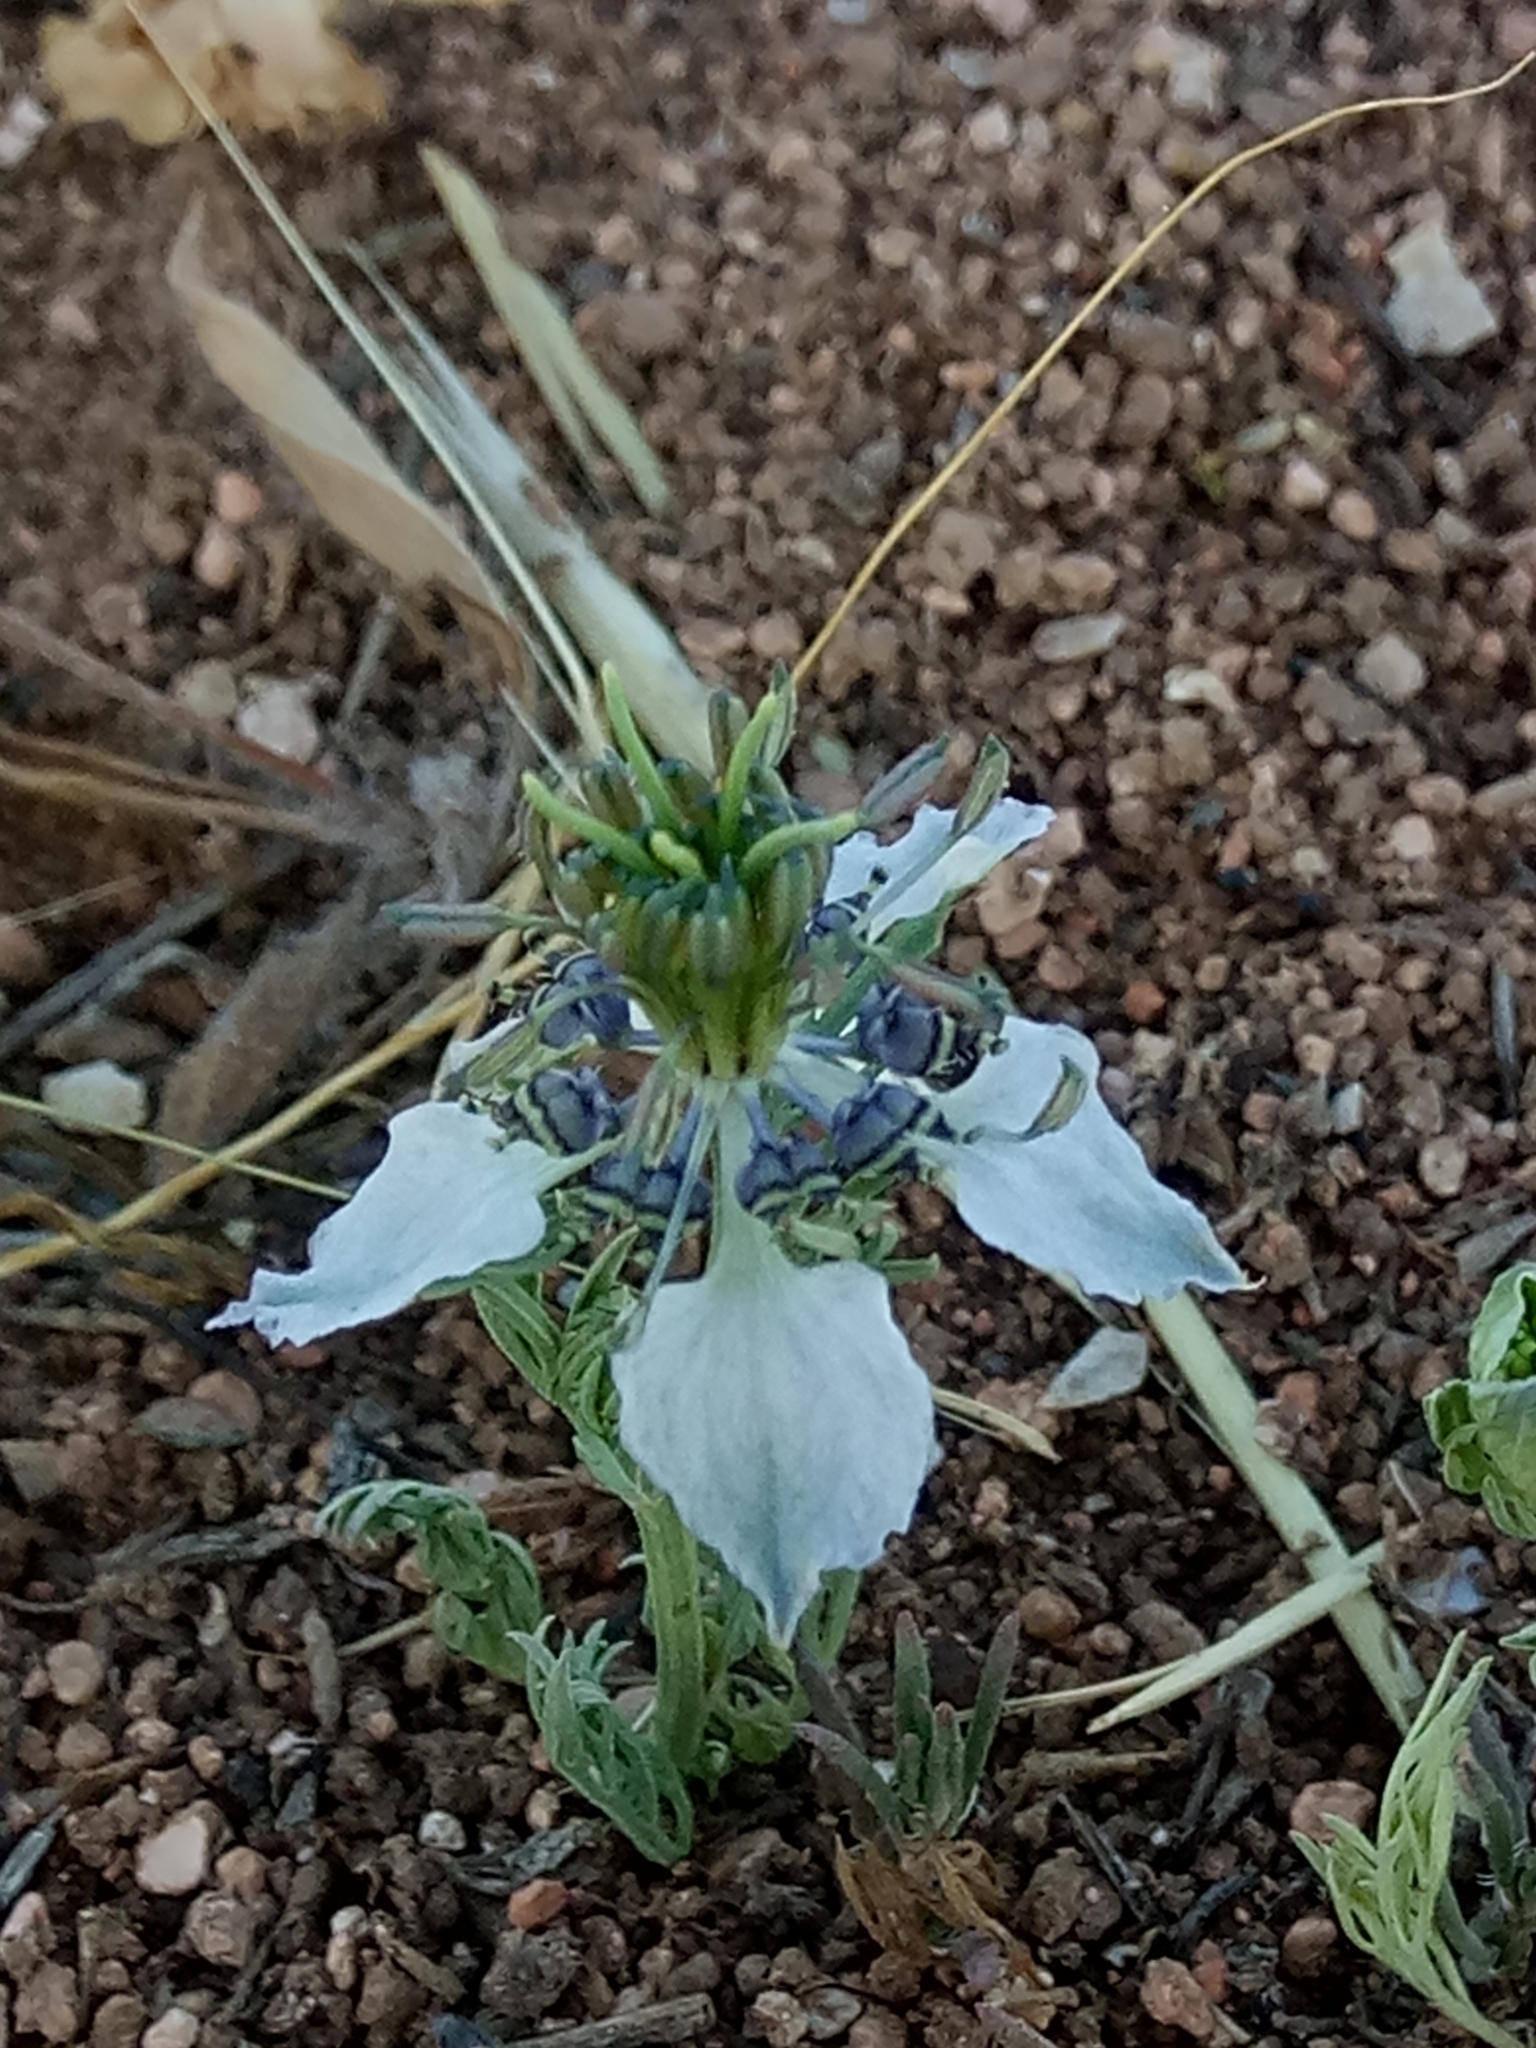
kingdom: Plantae
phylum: Tracheophyta
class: Magnoliopsida
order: Ranunculales
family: Ranunculaceae
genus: Nigella
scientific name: Nigella arvensis
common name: Wild fennel-flower
